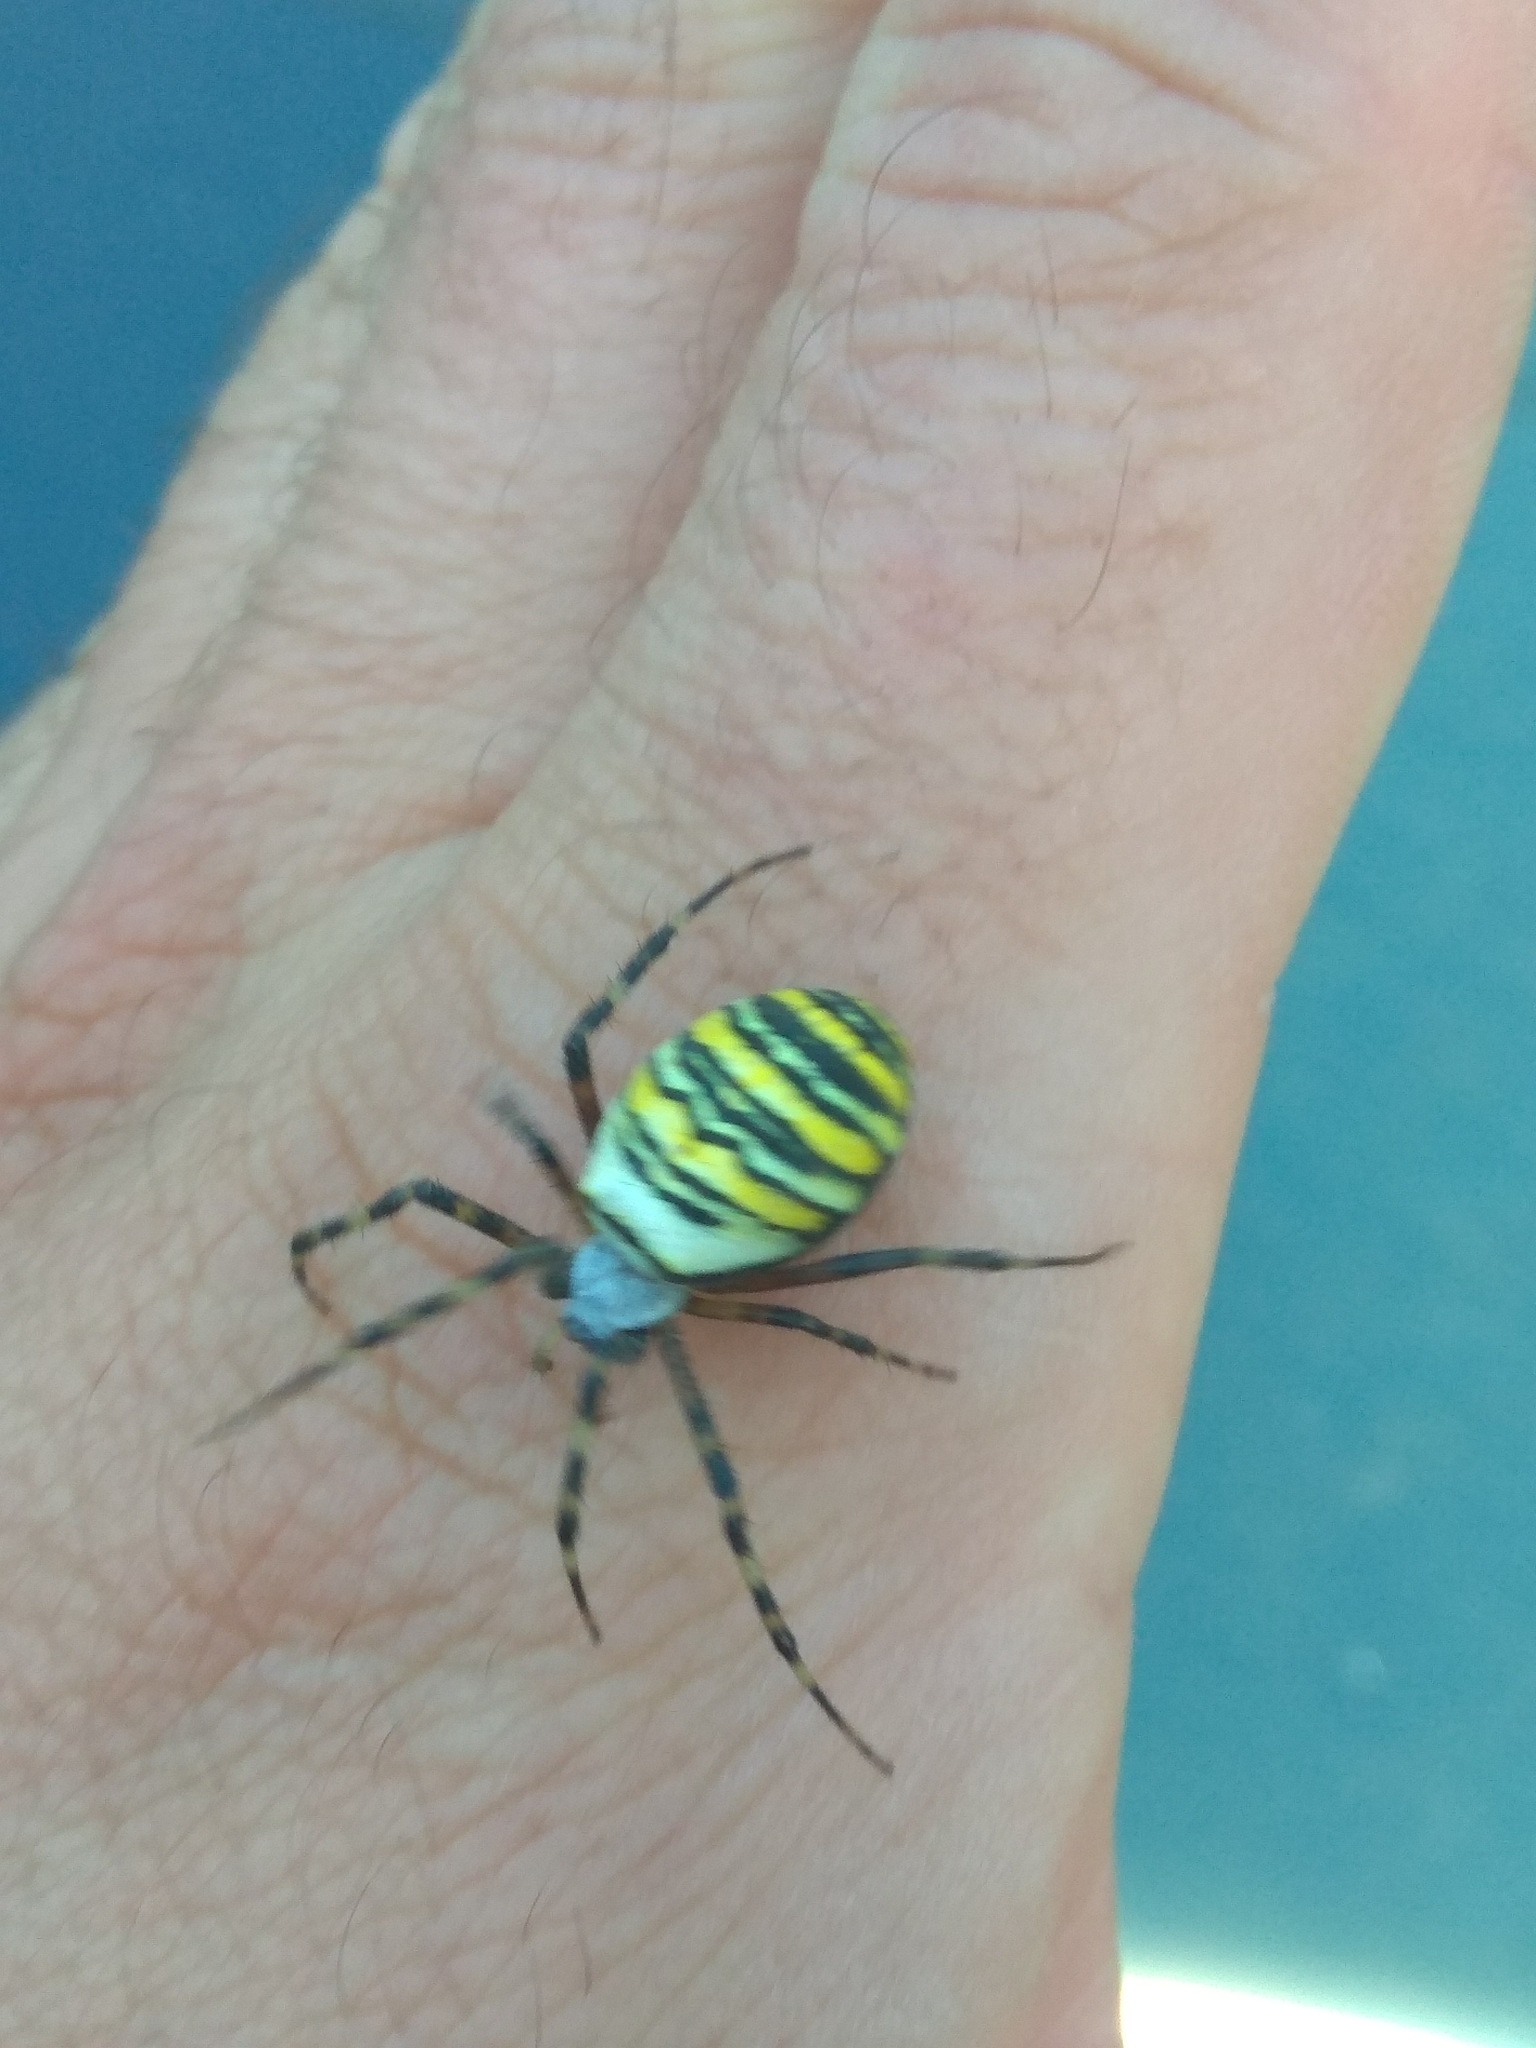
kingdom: Animalia
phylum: Arthropoda
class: Arachnida
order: Araneae
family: Araneidae
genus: Argiope
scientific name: Argiope bruennichi
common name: Wasp spider
